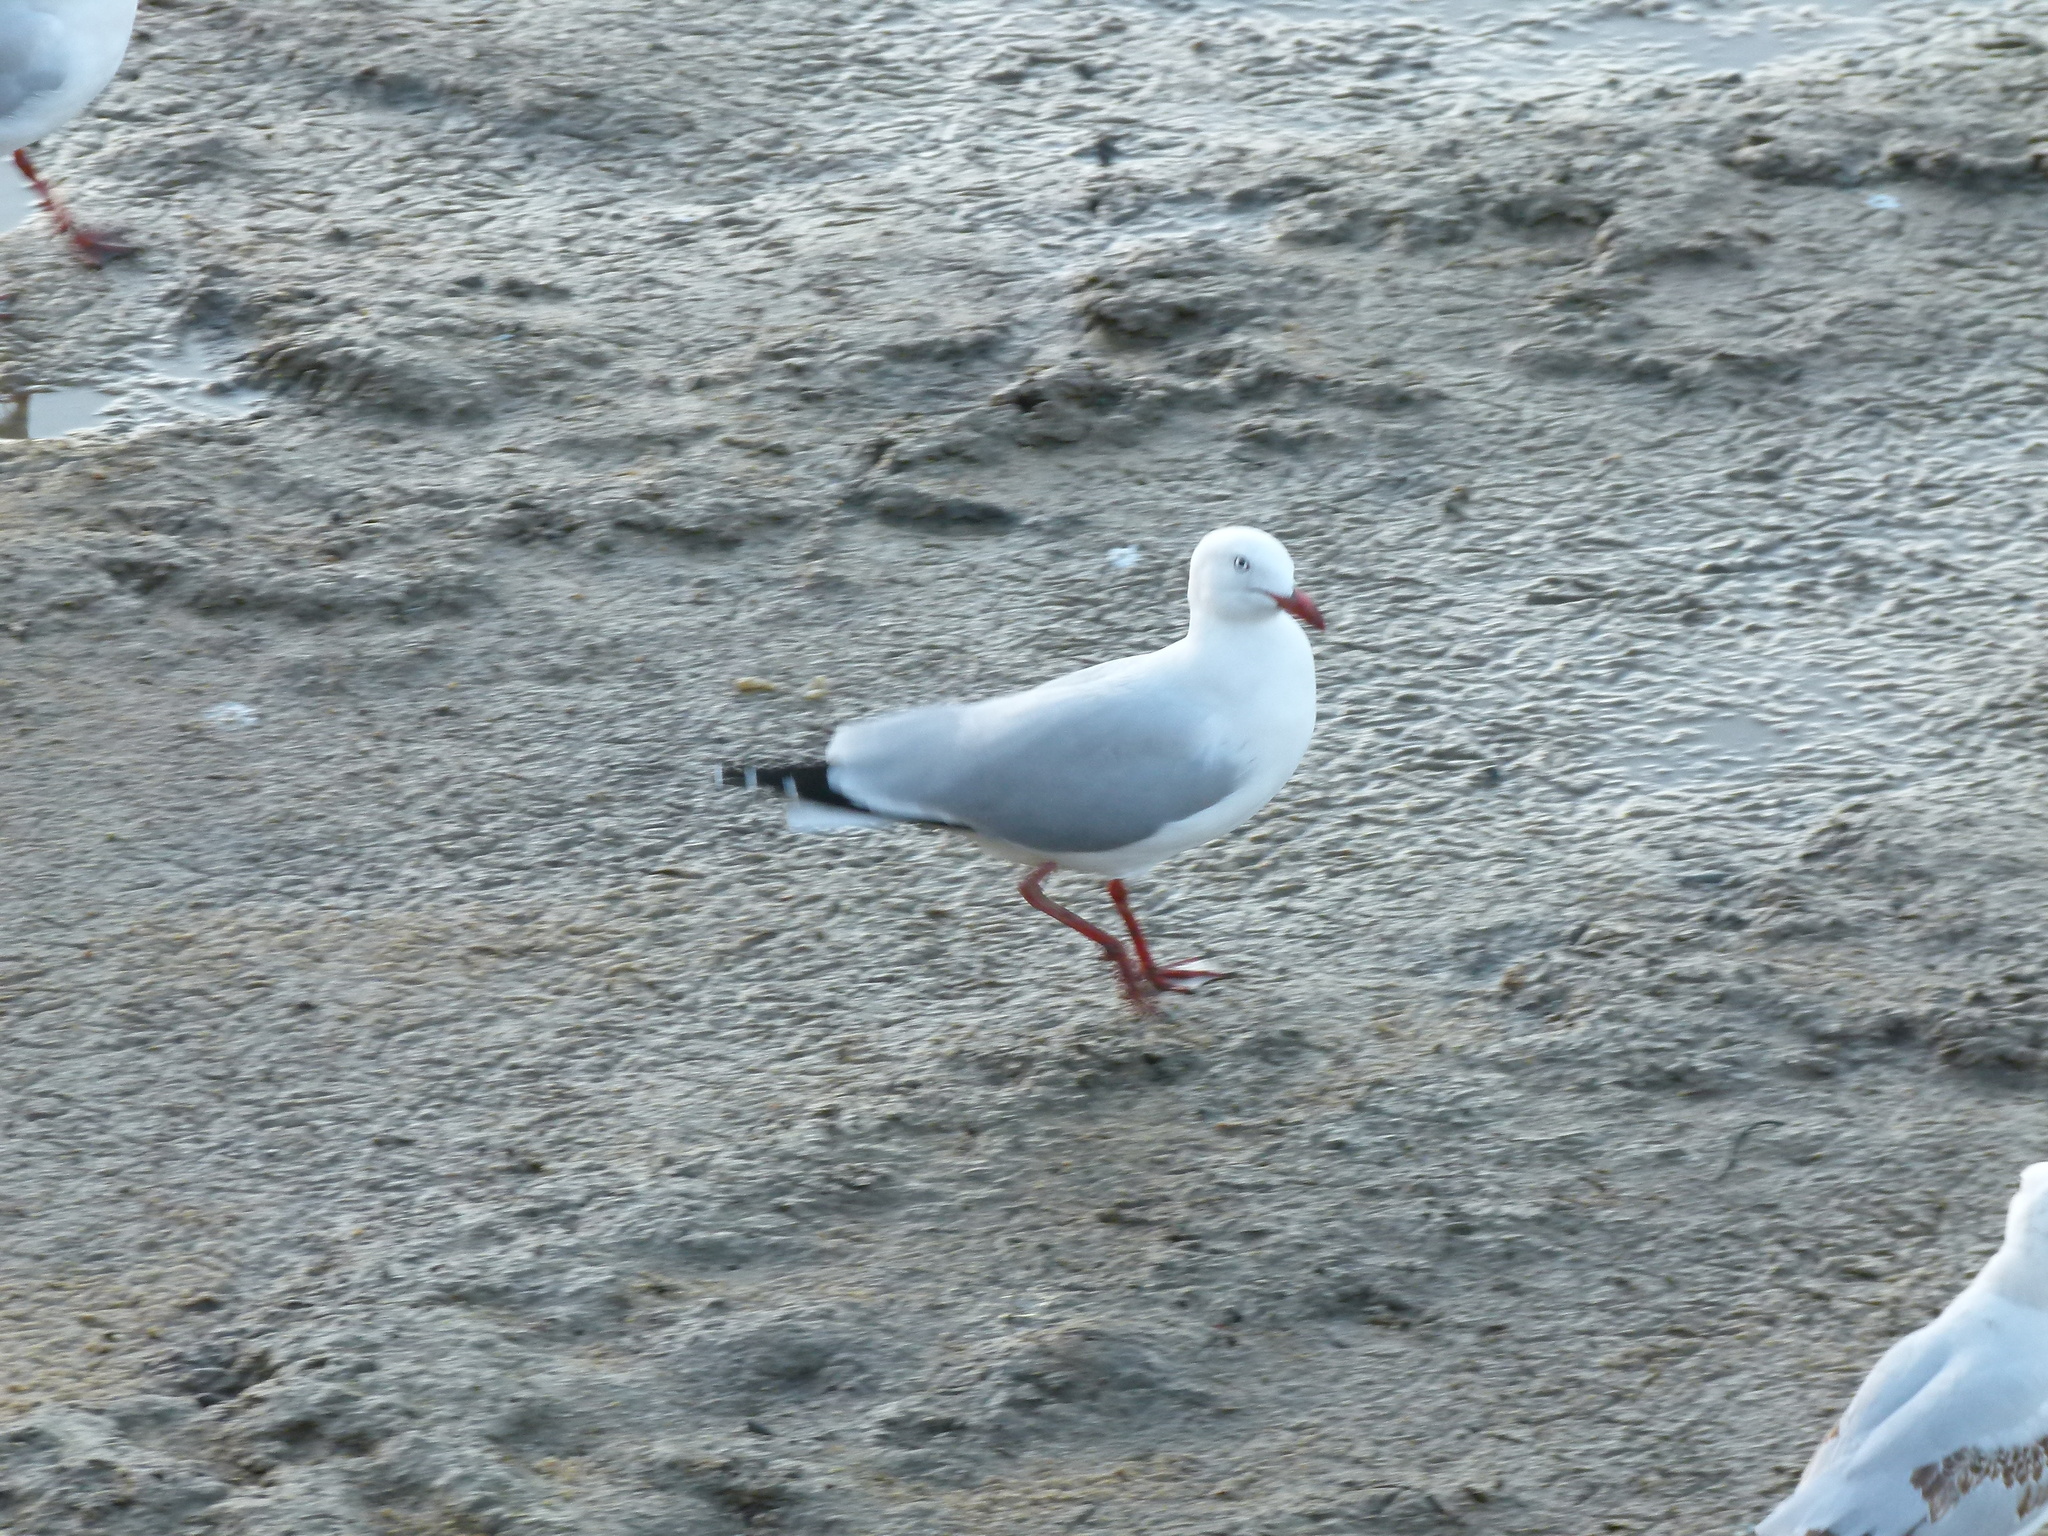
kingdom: Animalia
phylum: Chordata
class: Aves
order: Charadriiformes
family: Laridae
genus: Chroicocephalus
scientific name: Chroicocephalus novaehollandiae
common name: Silver gull
